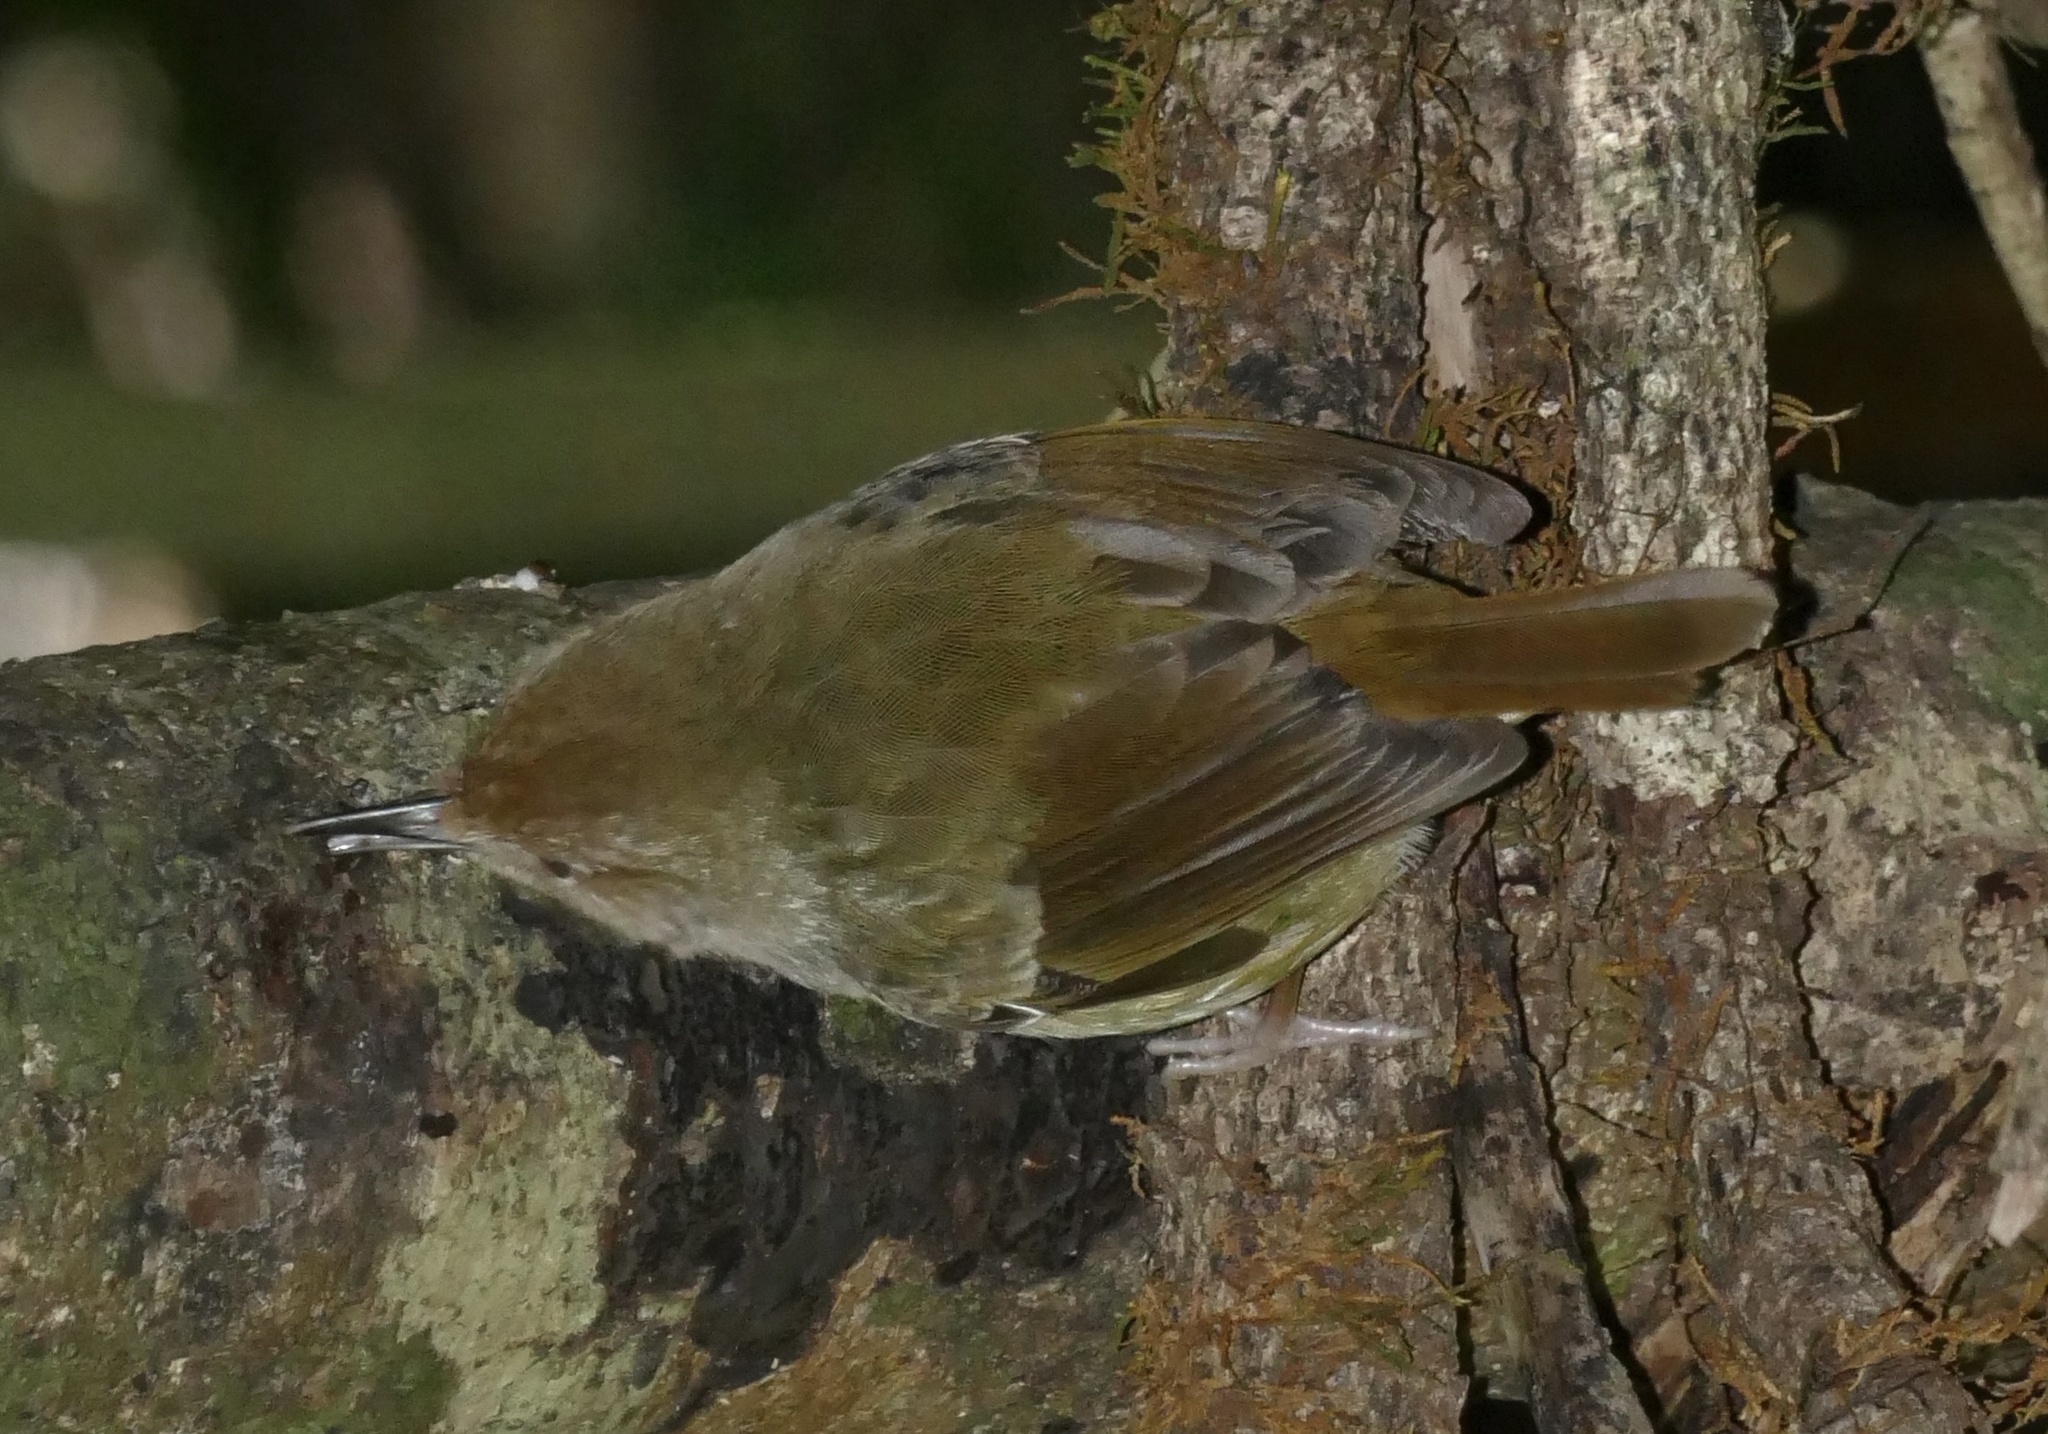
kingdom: Animalia
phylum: Chordata
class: Aves
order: Passeriformes
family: Acanthizidae
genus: Sericornis
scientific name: Sericornis magnirostra
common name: Large-billed scrubwren
